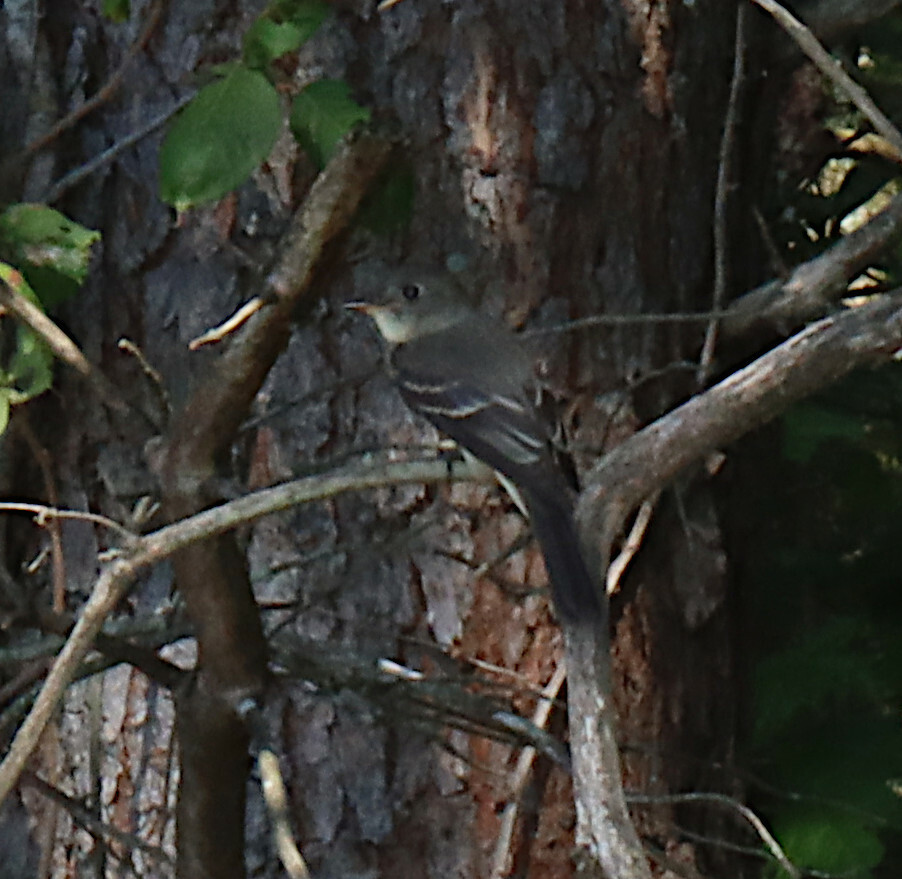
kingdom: Animalia
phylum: Chordata
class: Aves
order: Passeriformes
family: Tyrannidae
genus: Contopus
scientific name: Contopus virens
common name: Eastern wood-pewee
